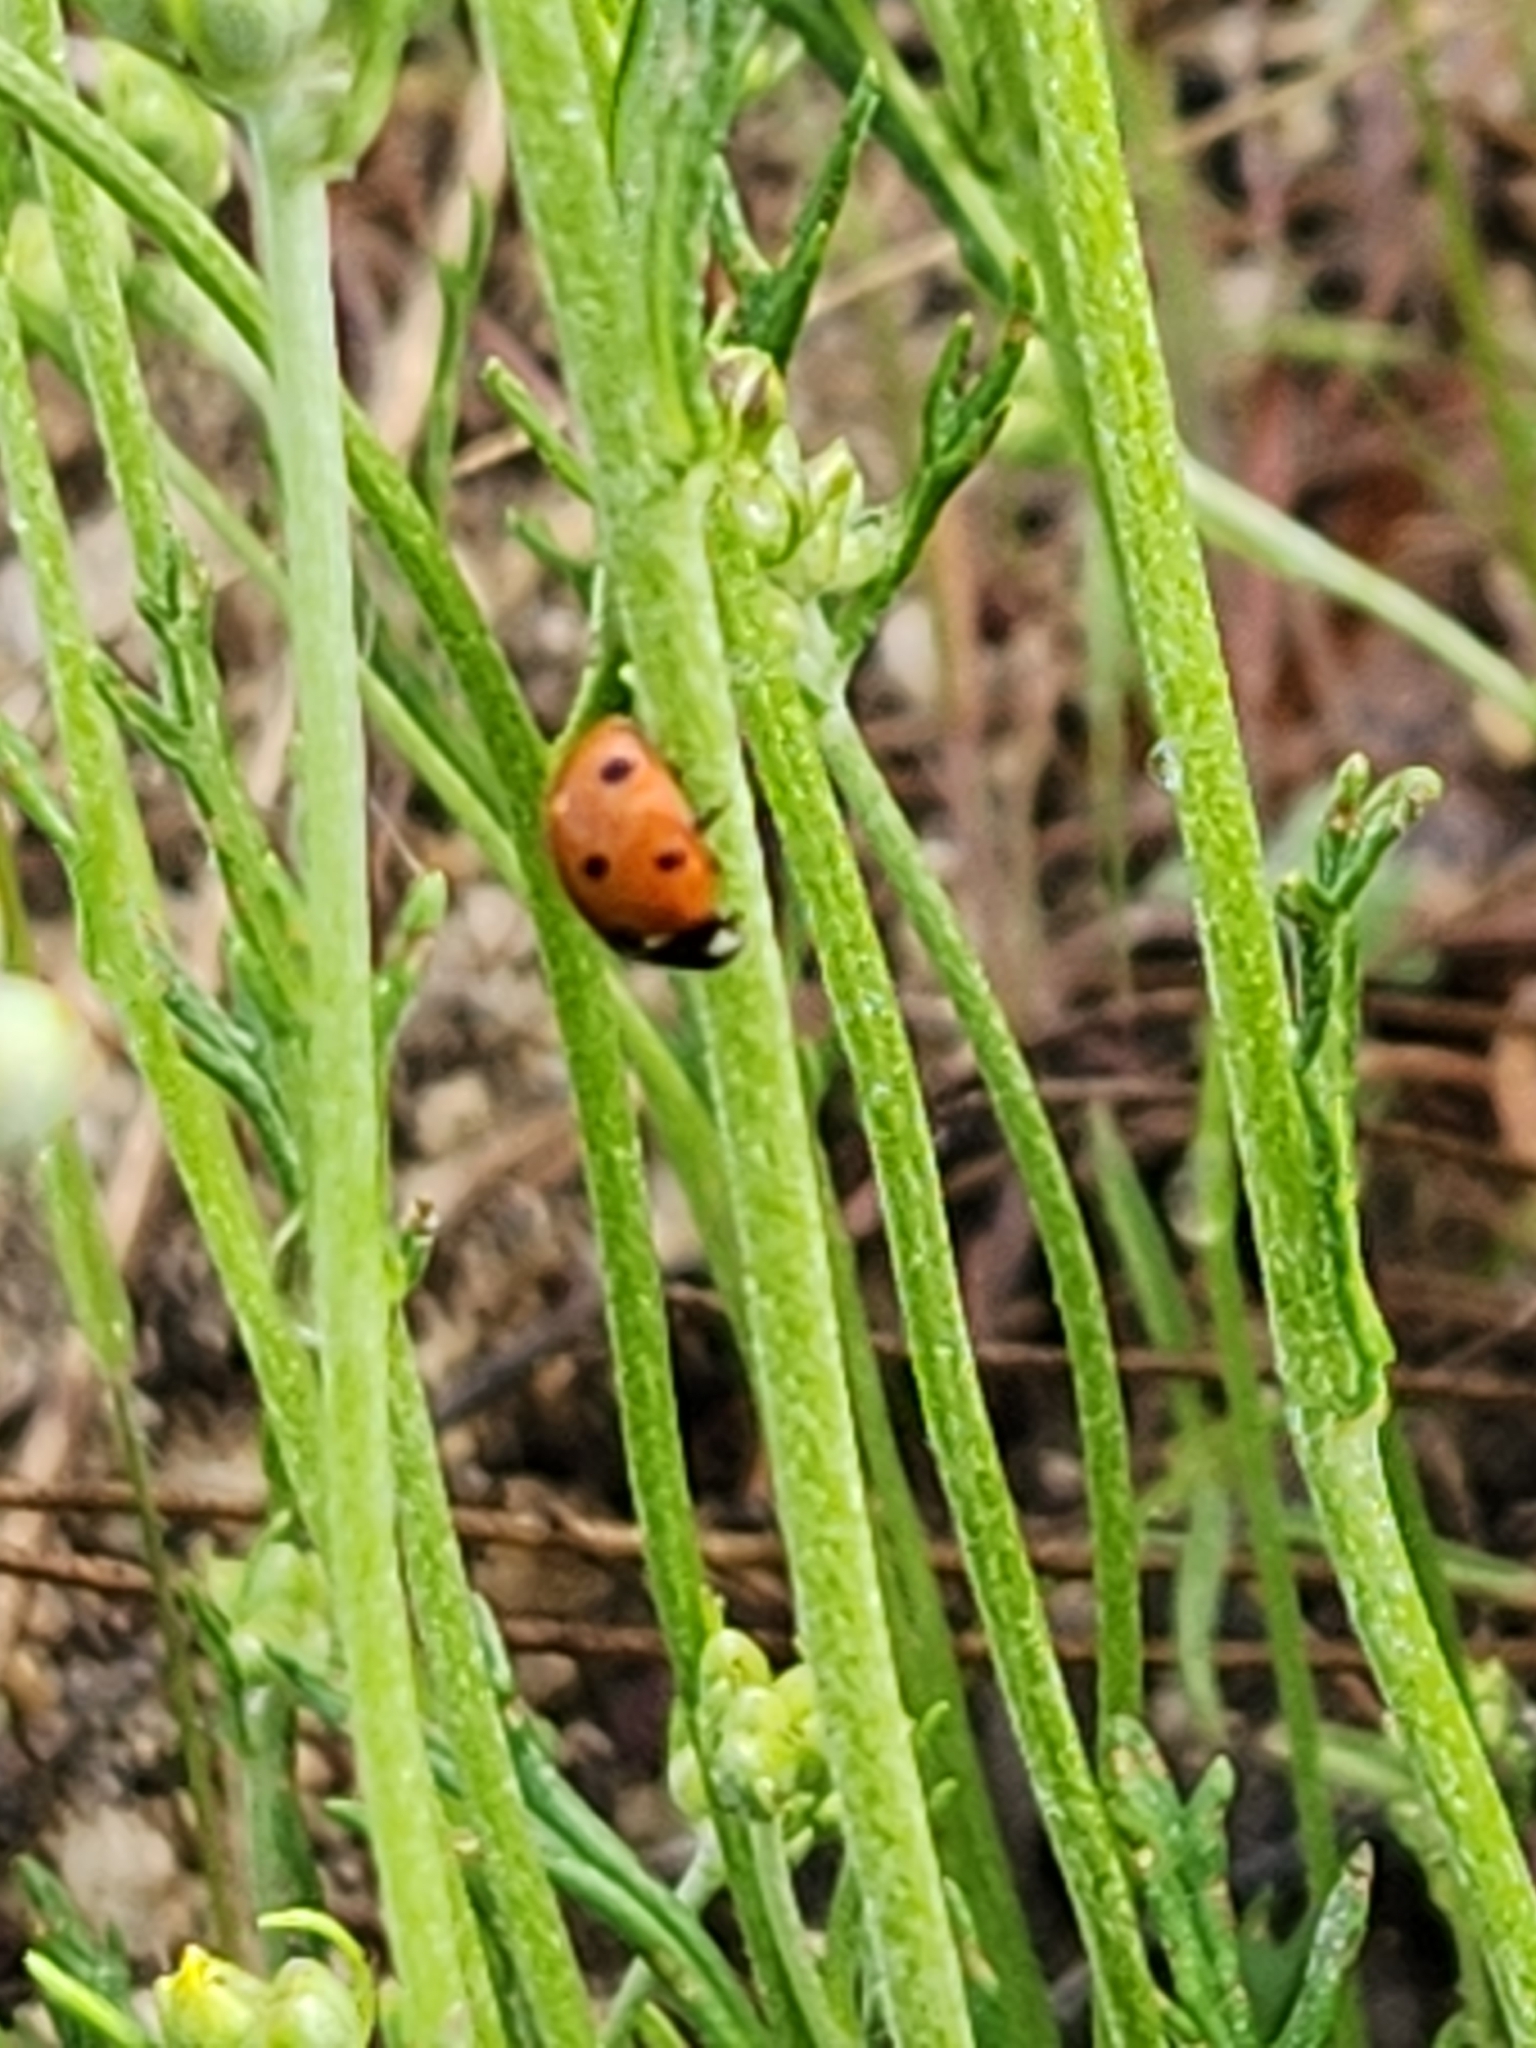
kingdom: Animalia
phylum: Arthropoda
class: Insecta
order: Coleoptera
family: Coccinellidae
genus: Coccinella
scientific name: Coccinella septempunctata
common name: Sevenspotted lady beetle
